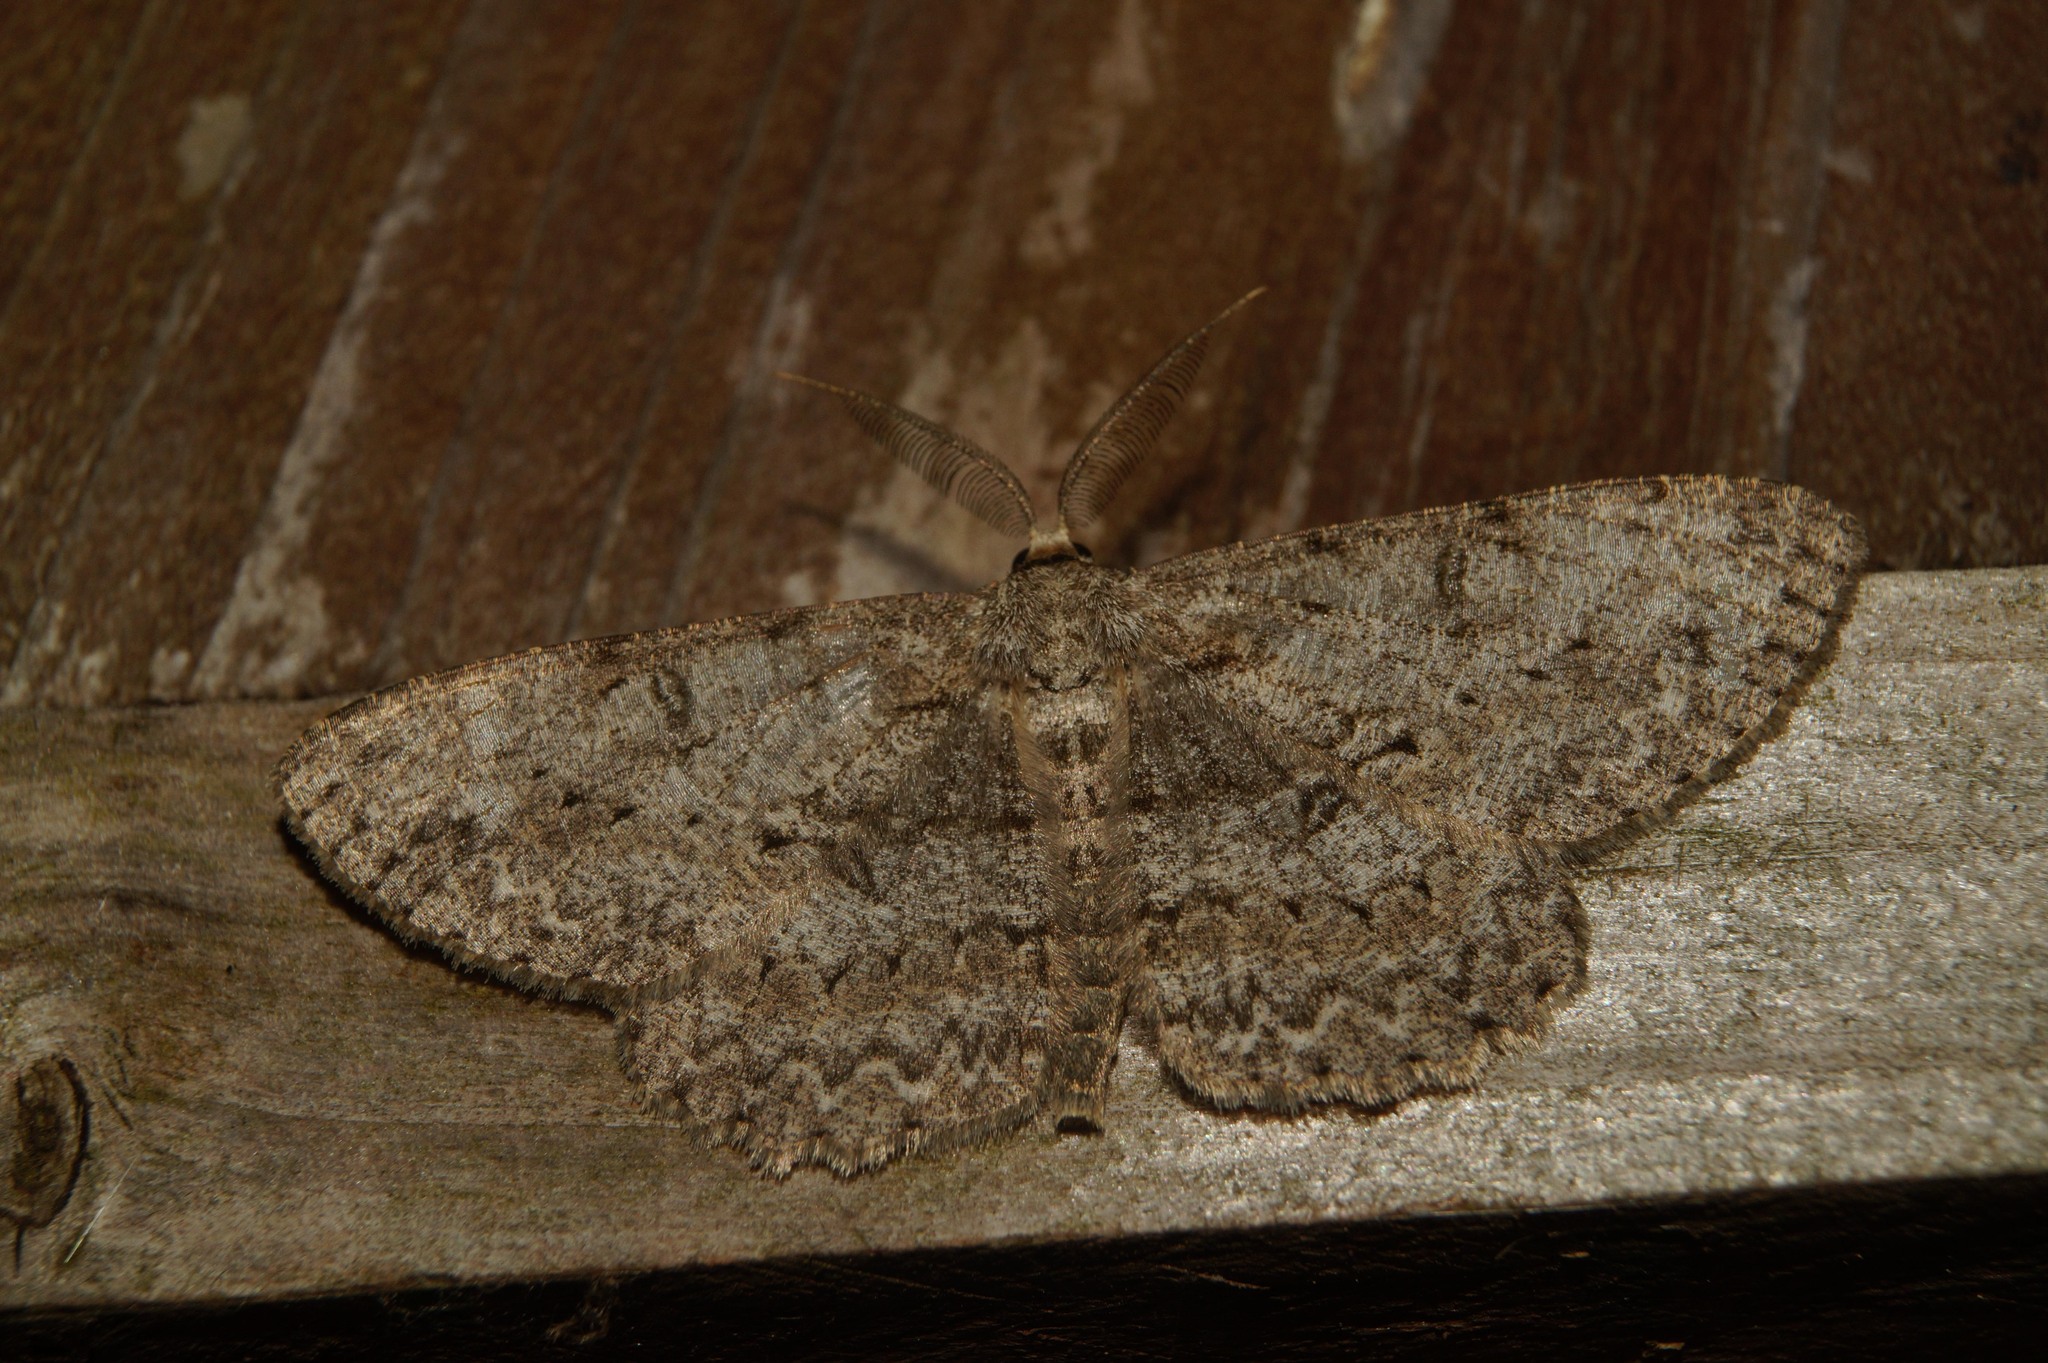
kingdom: Animalia
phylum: Arthropoda
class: Insecta
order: Lepidoptera
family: Geometridae
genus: Hypomecis
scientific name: Hypomecis punctinalis
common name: Pale oak beauty
